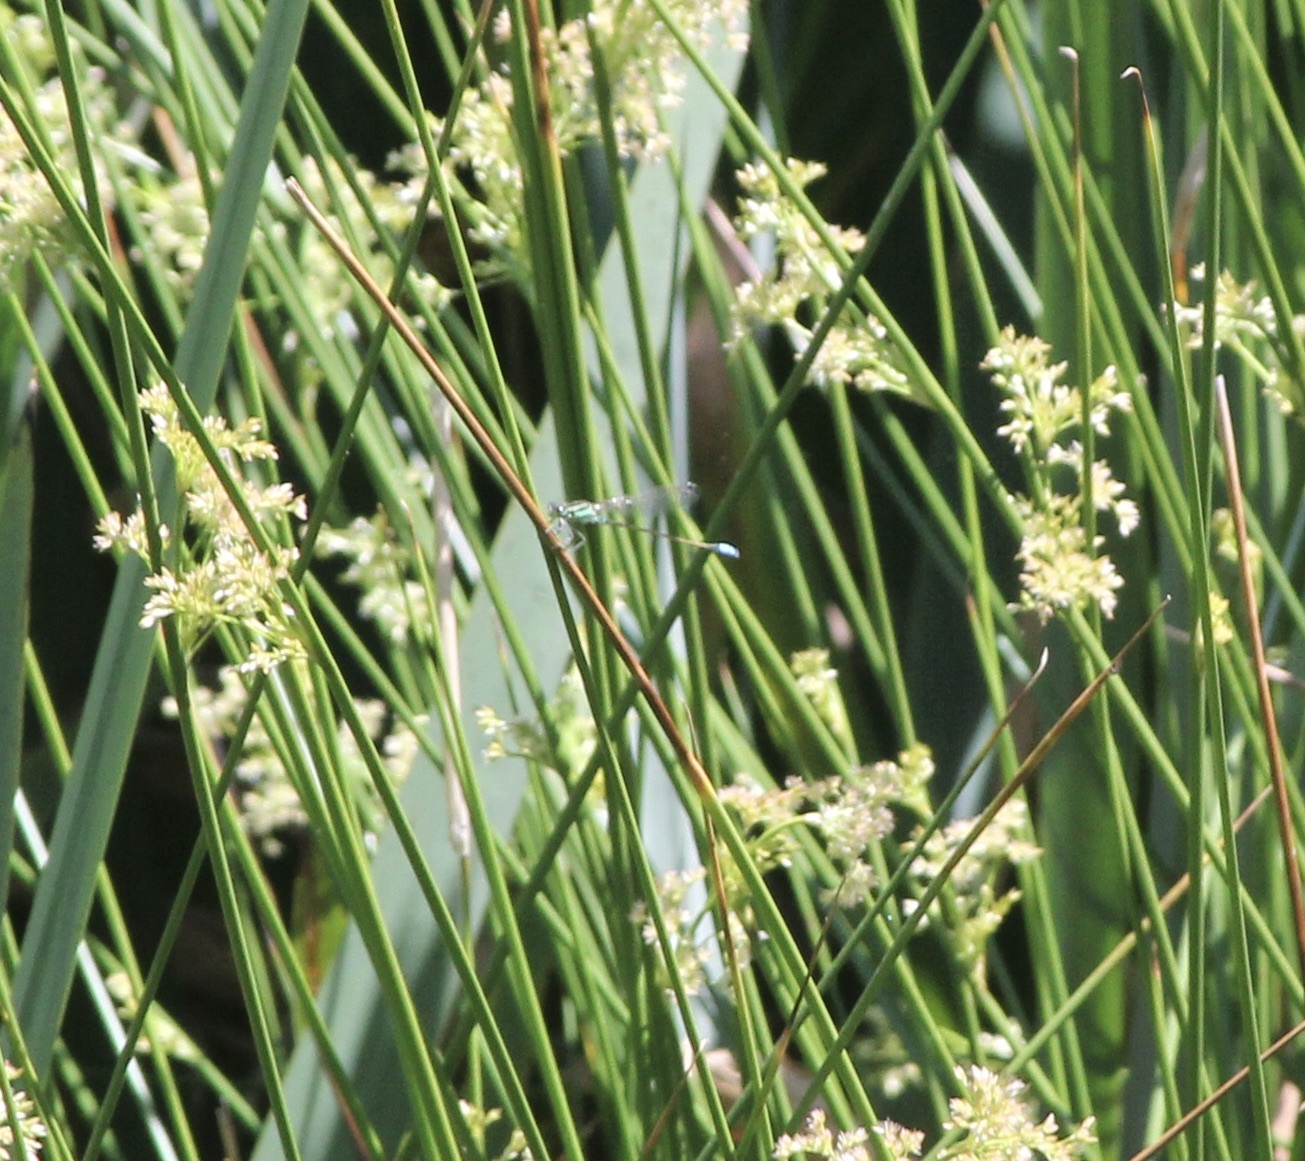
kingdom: Animalia
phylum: Arthropoda
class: Insecta
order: Odonata
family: Coenagrionidae
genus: Ischnura
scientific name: Ischnura ramburii
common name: Rambur's forktail
